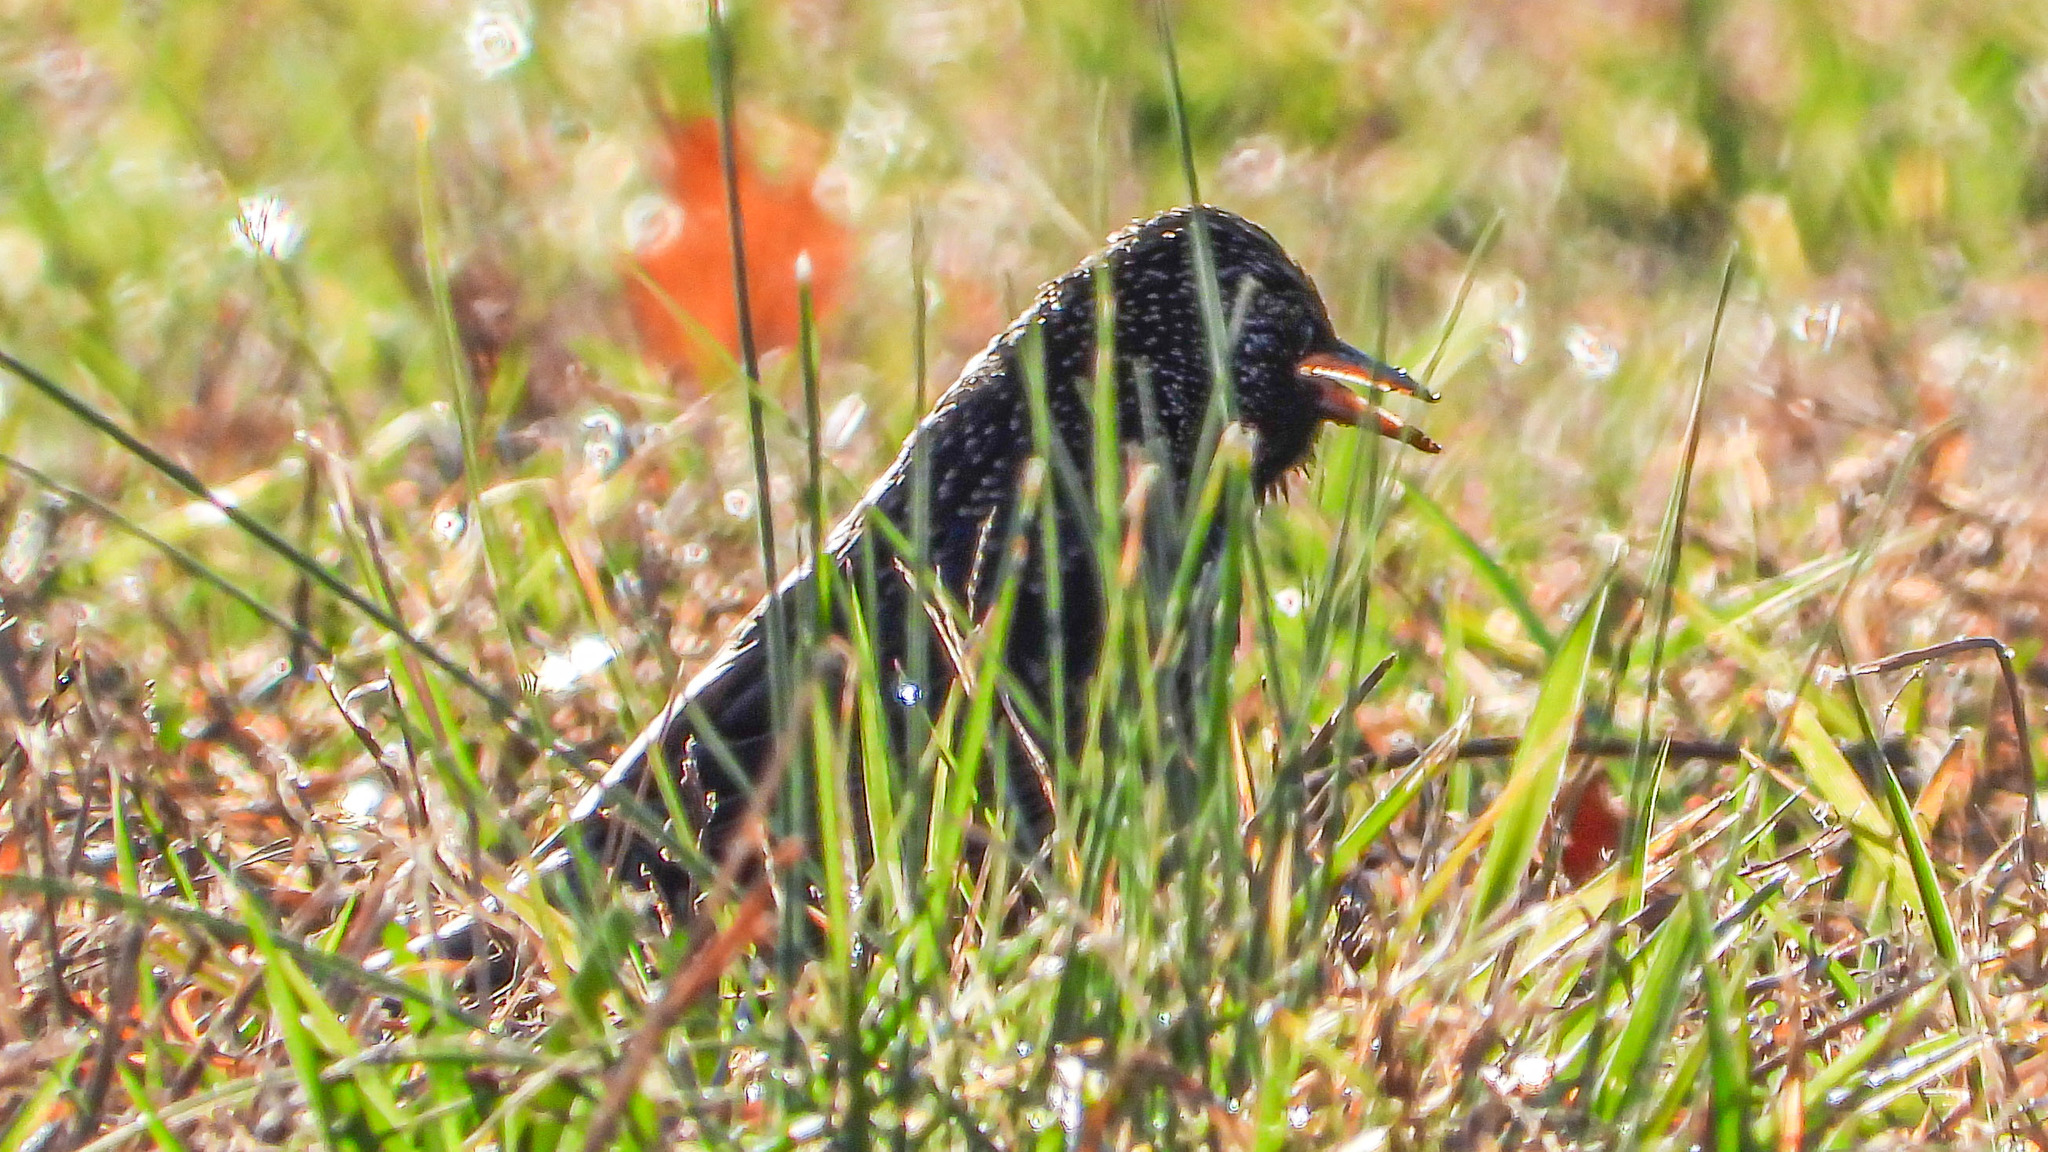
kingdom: Animalia
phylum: Chordata
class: Aves
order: Passeriformes
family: Sturnidae
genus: Sturnus
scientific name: Sturnus vulgaris
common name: Common starling
